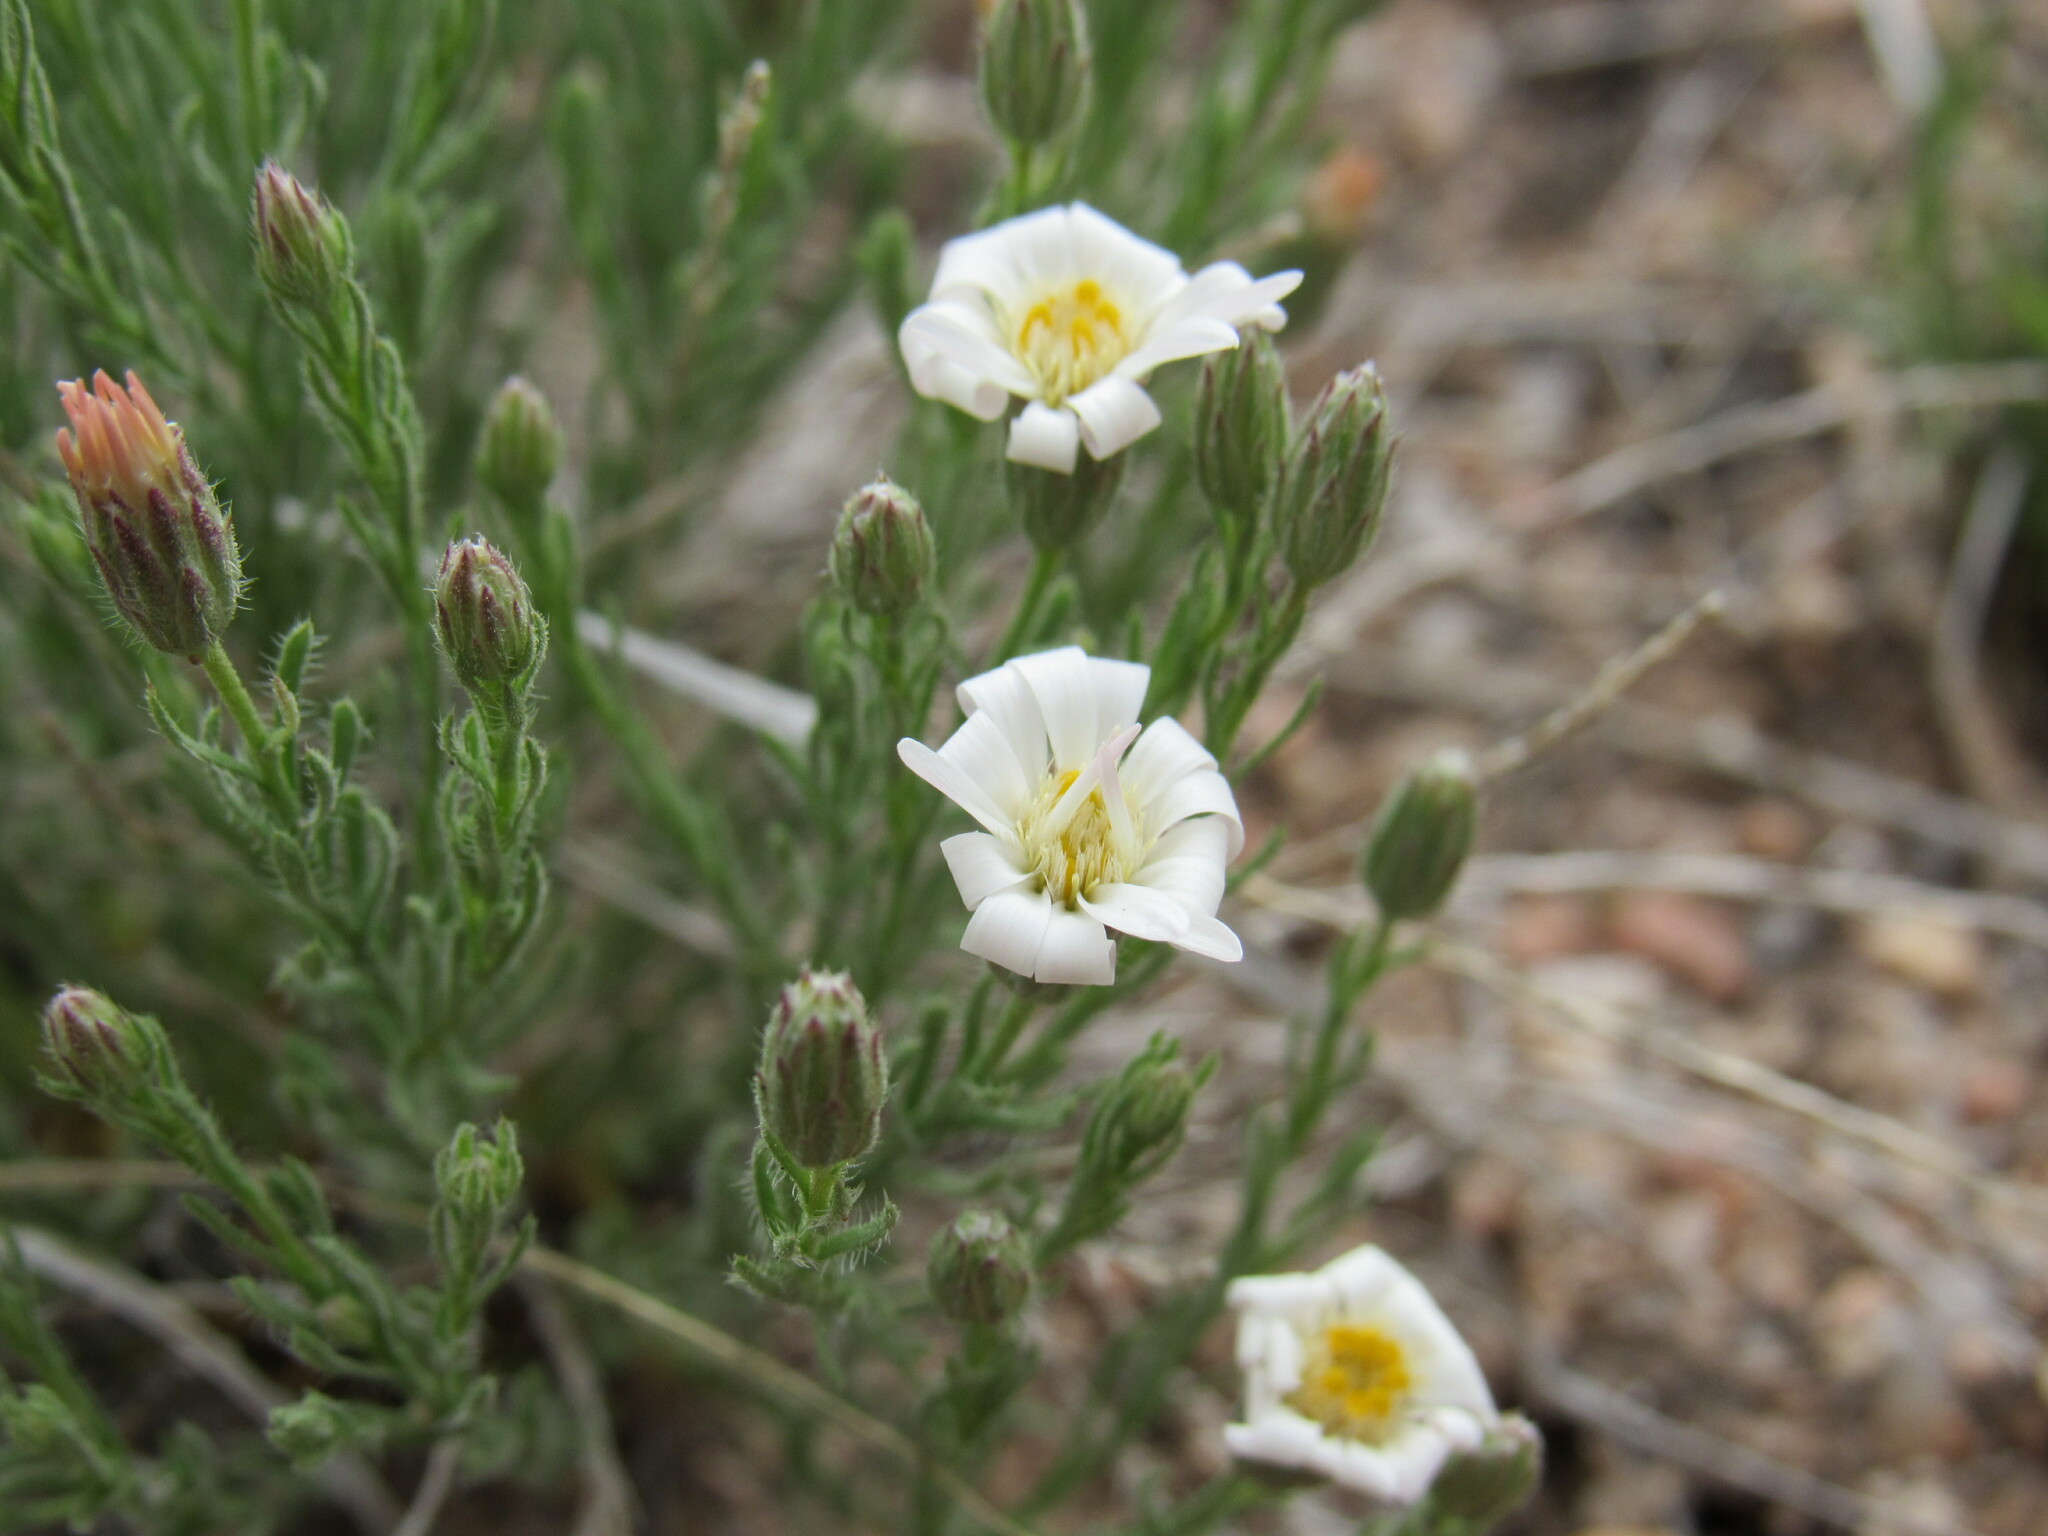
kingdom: Plantae
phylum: Tracheophyta
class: Magnoliopsida
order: Asterales
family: Asteraceae
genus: Chaetopappa
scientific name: Chaetopappa ericoides
